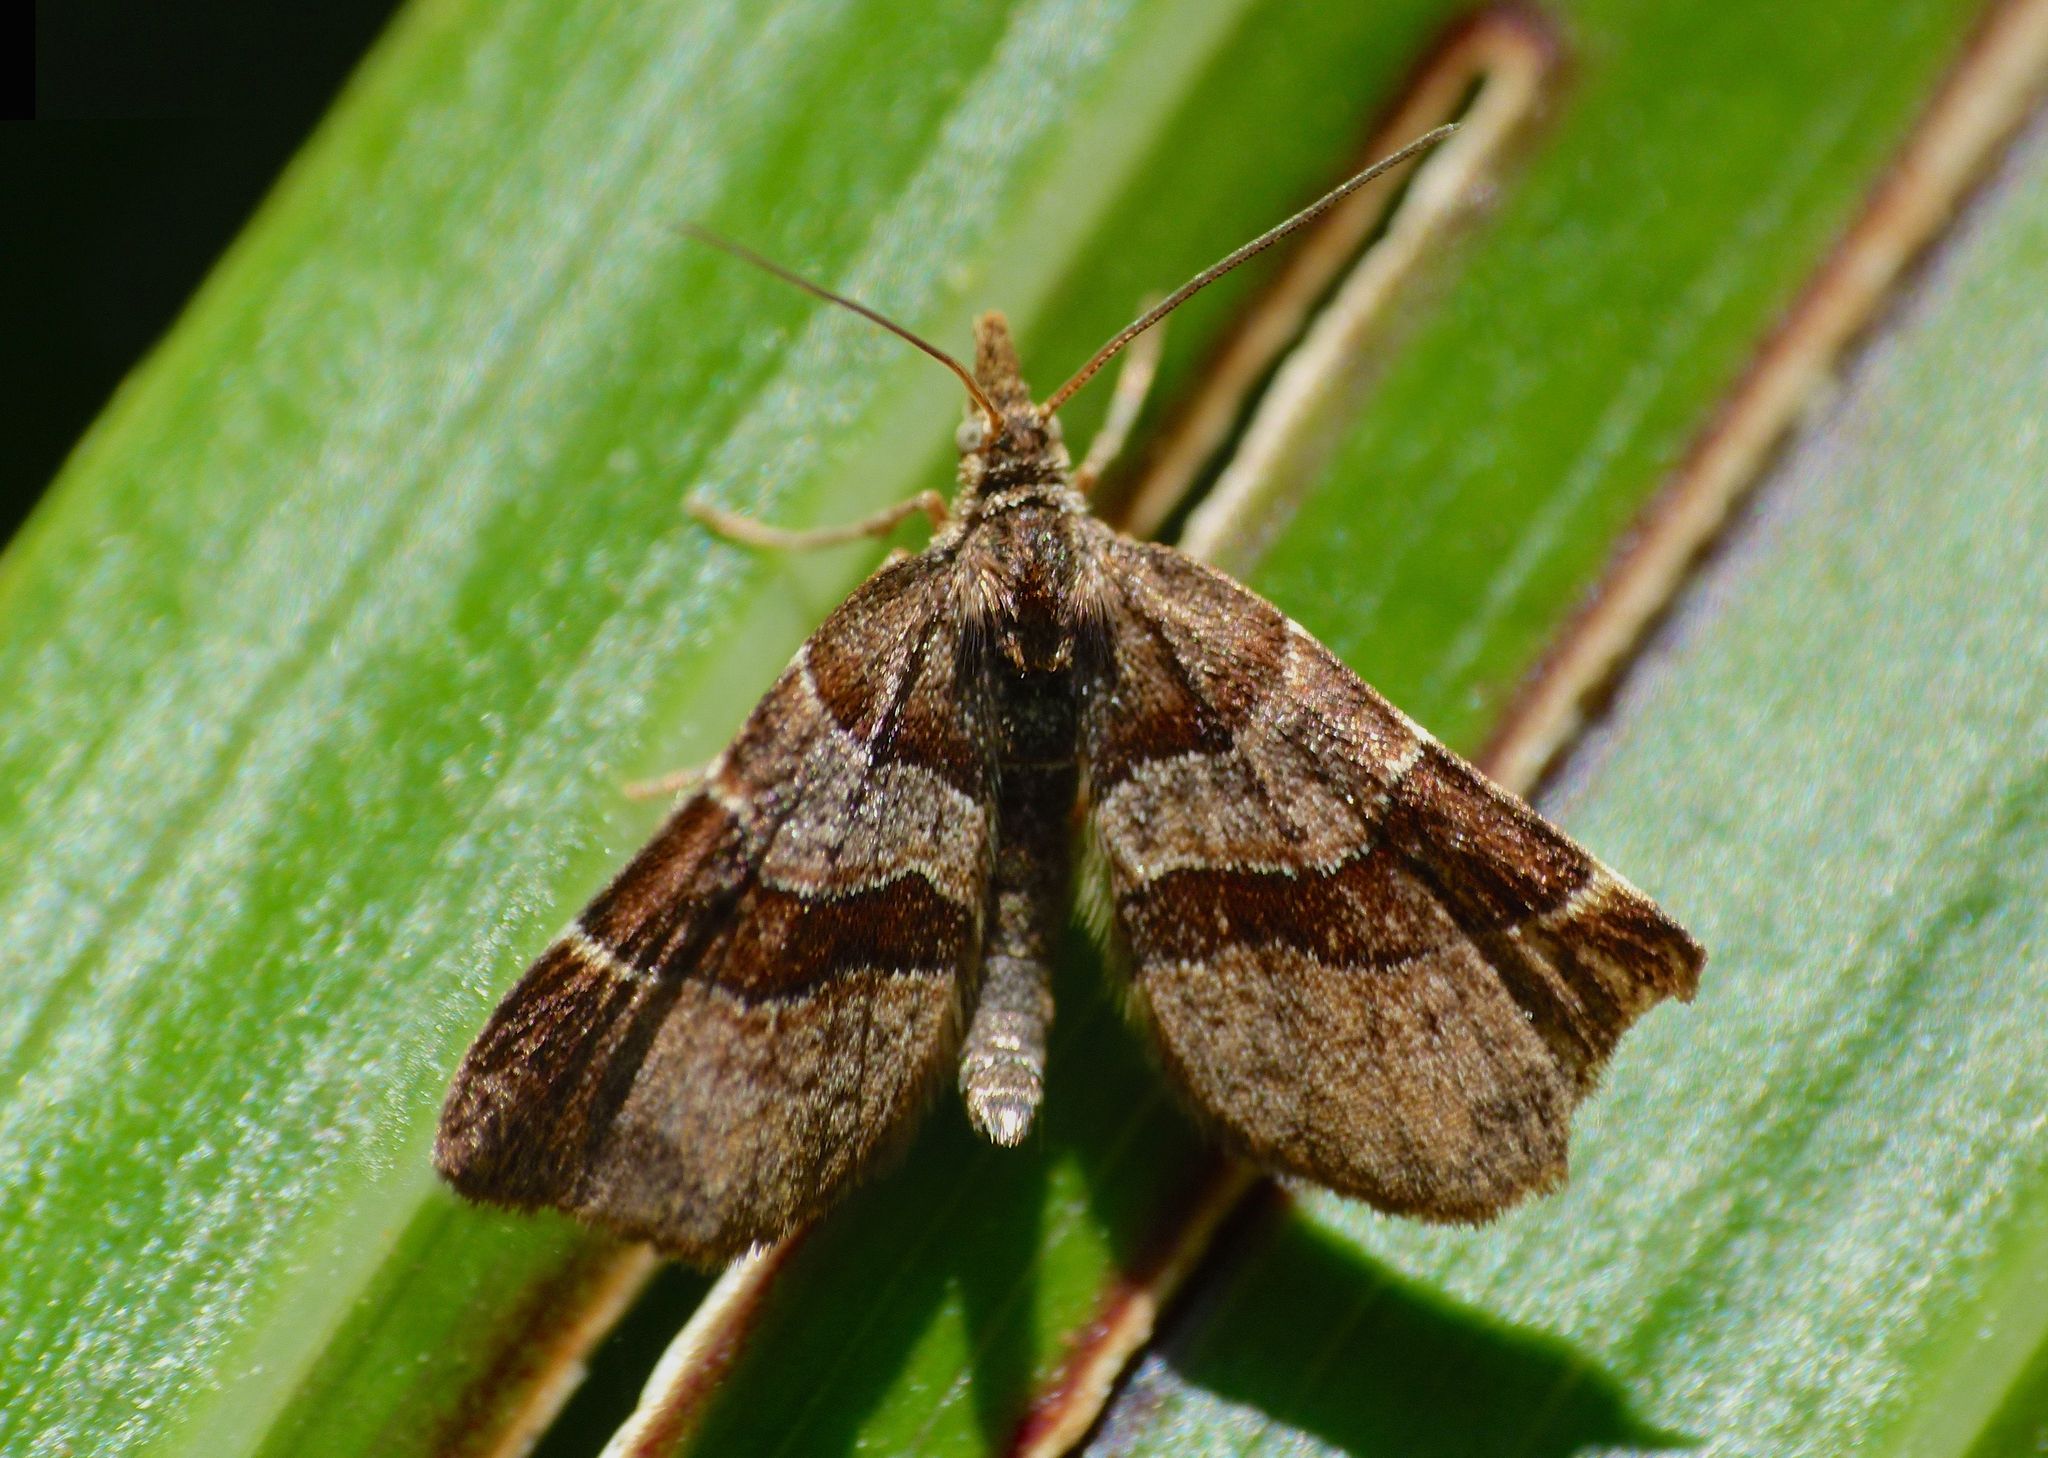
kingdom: Animalia
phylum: Arthropoda
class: Insecta
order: Lepidoptera
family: Geometridae
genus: Cephalissa
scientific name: Cephalissa siria
